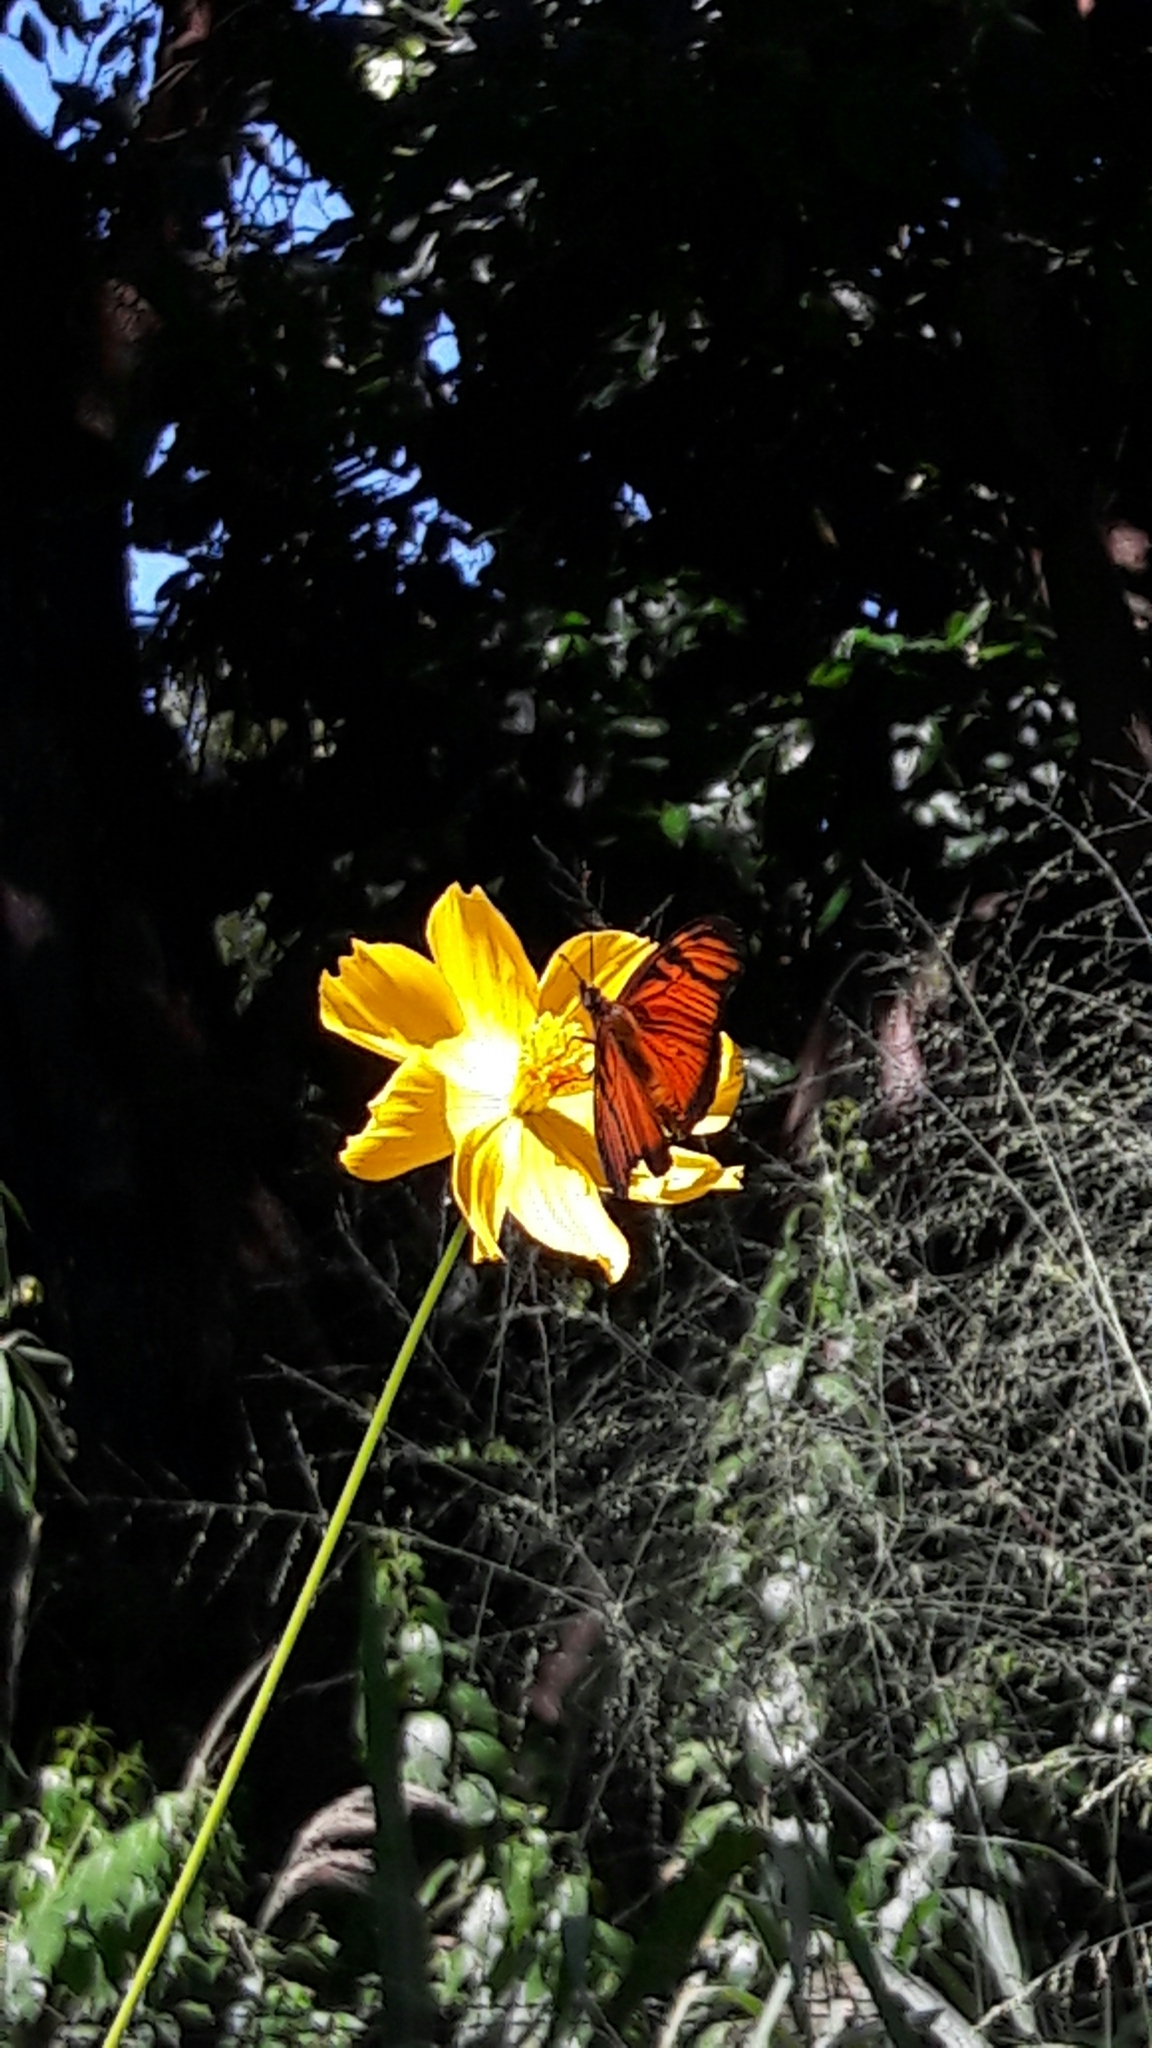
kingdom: Animalia
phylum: Arthropoda
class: Insecta
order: Lepidoptera
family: Nymphalidae
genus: Dione
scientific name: Dione juno
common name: Juno silverspot
